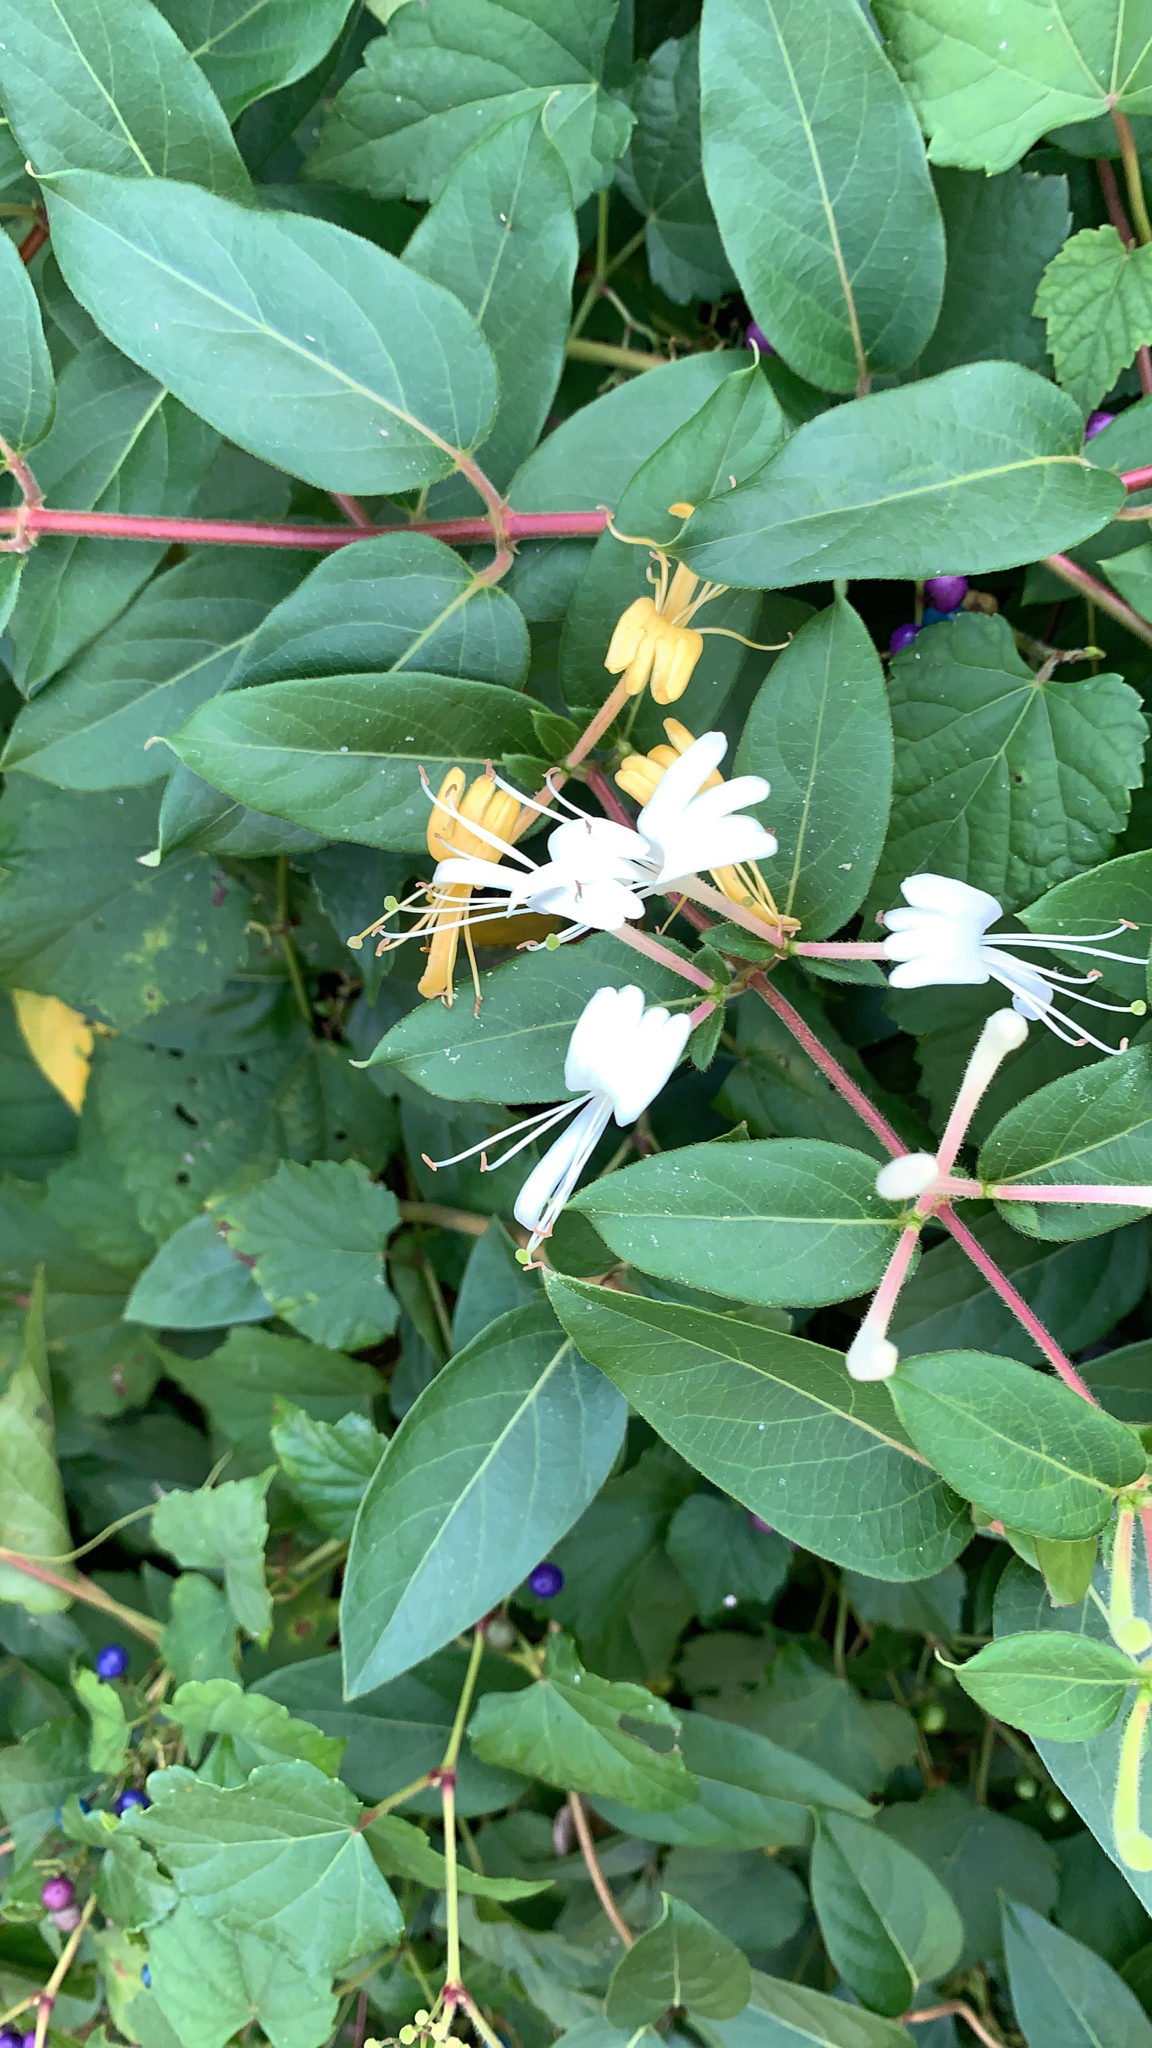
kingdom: Plantae
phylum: Tracheophyta
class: Magnoliopsida
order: Dipsacales
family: Caprifoliaceae
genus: Lonicera
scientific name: Lonicera japonica
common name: Japanese honeysuckle
